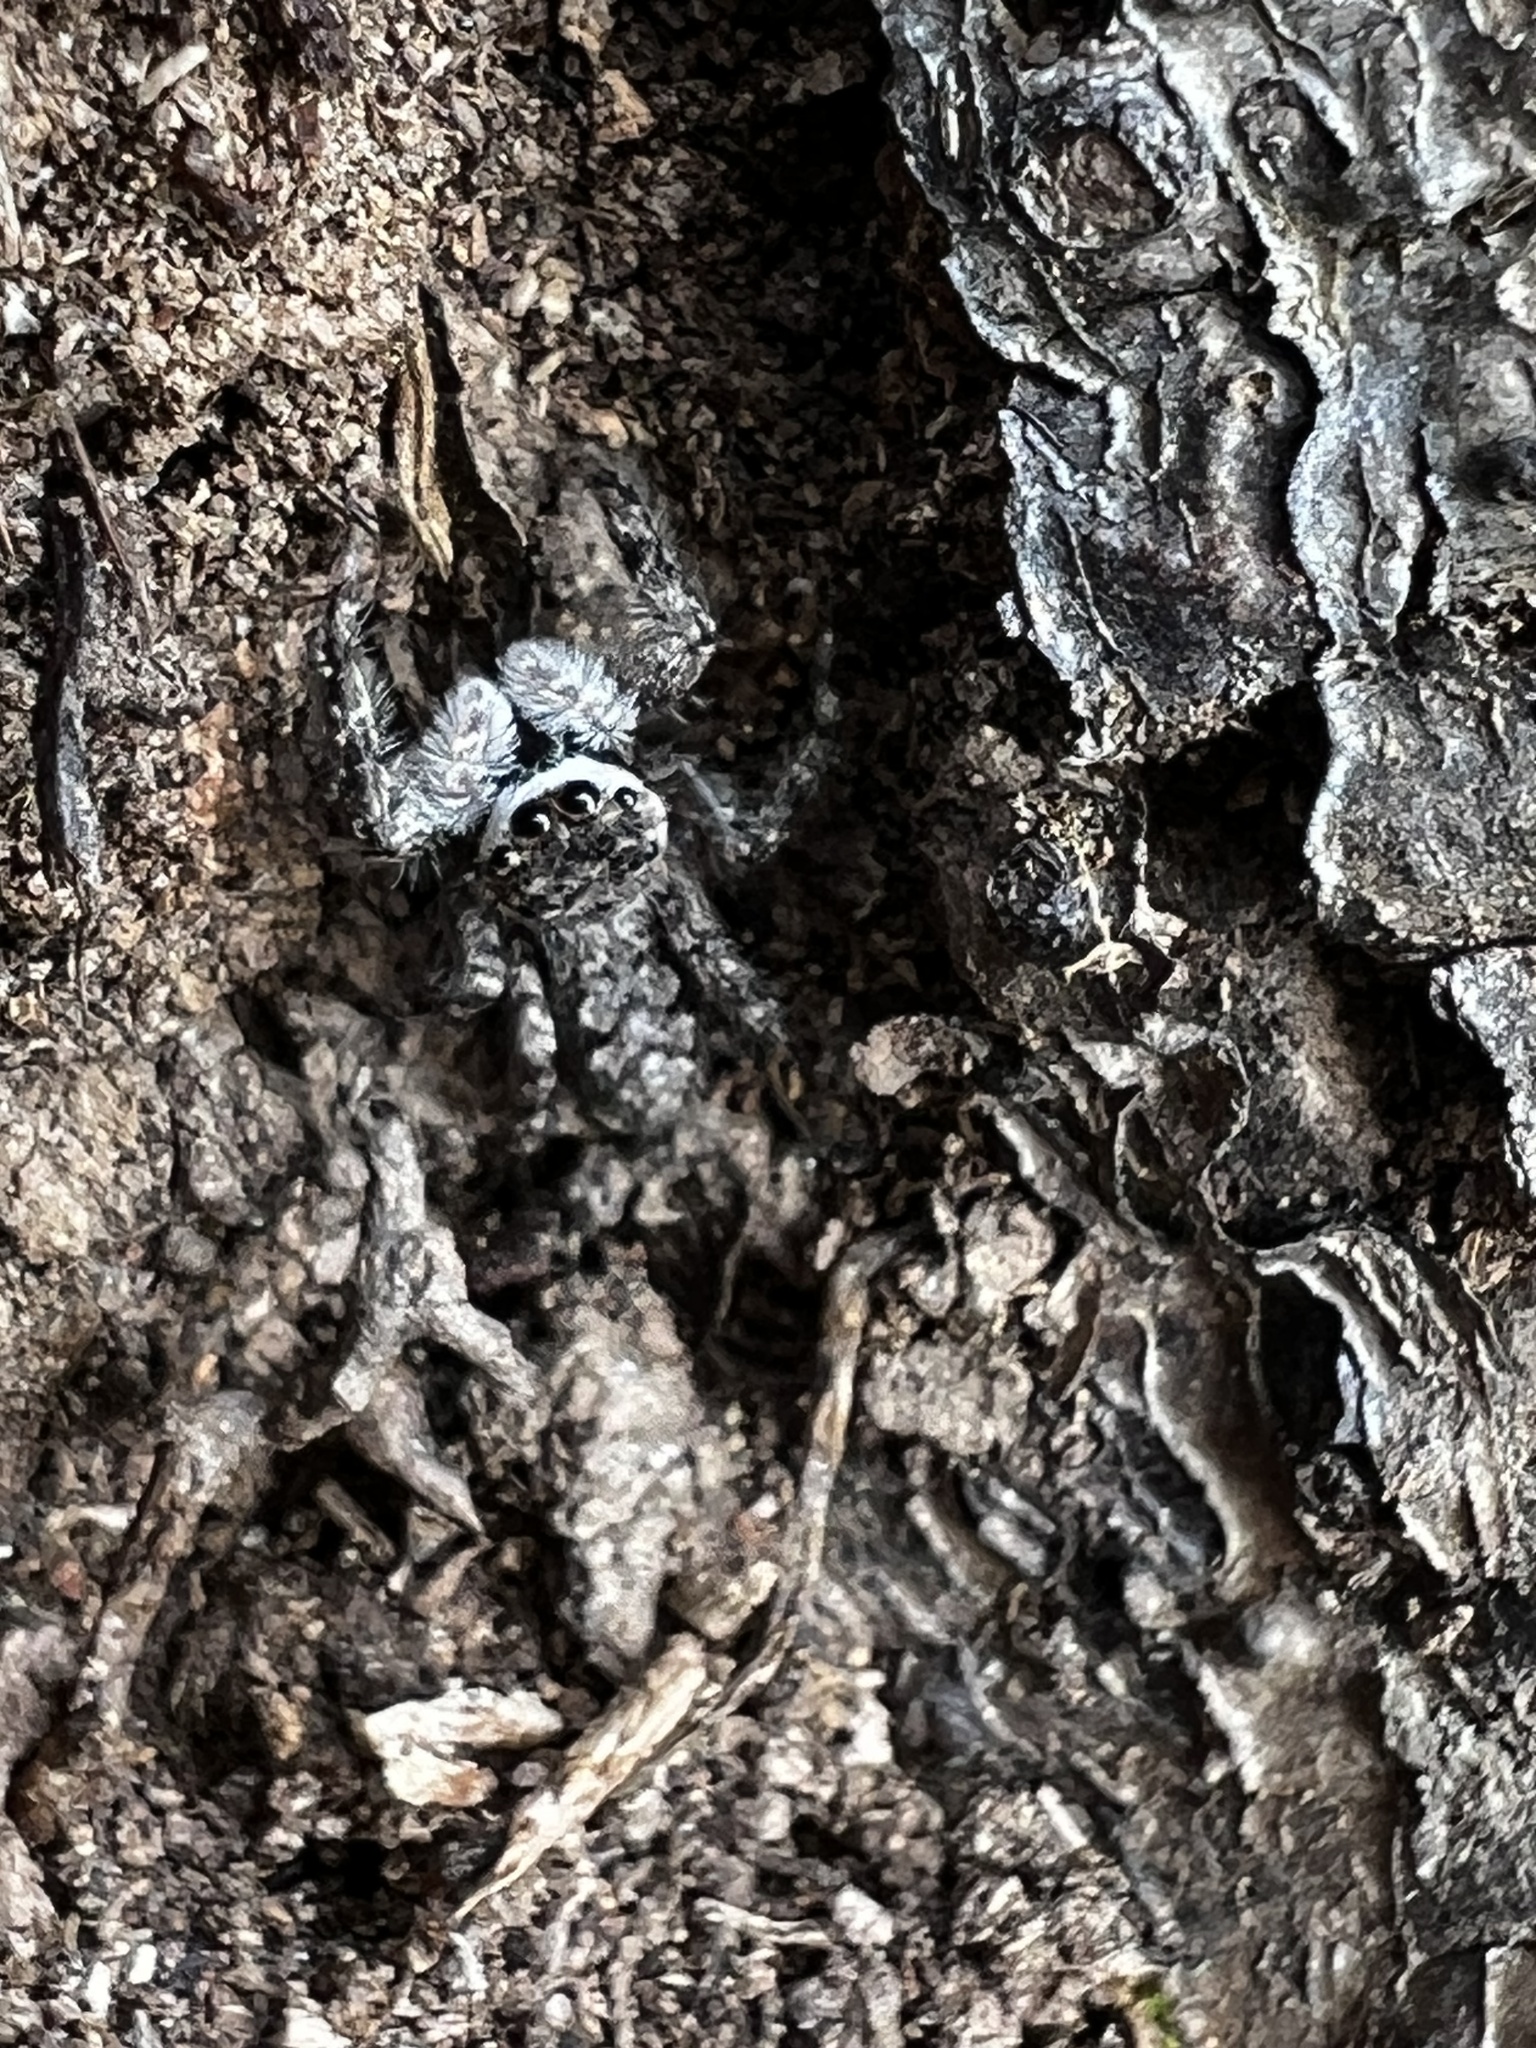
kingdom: Animalia
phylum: Arthropoda
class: Arachnida
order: Araneae
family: Salticidae
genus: Platycryptus
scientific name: Platycryptus undatus
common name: Tan jumping spider
